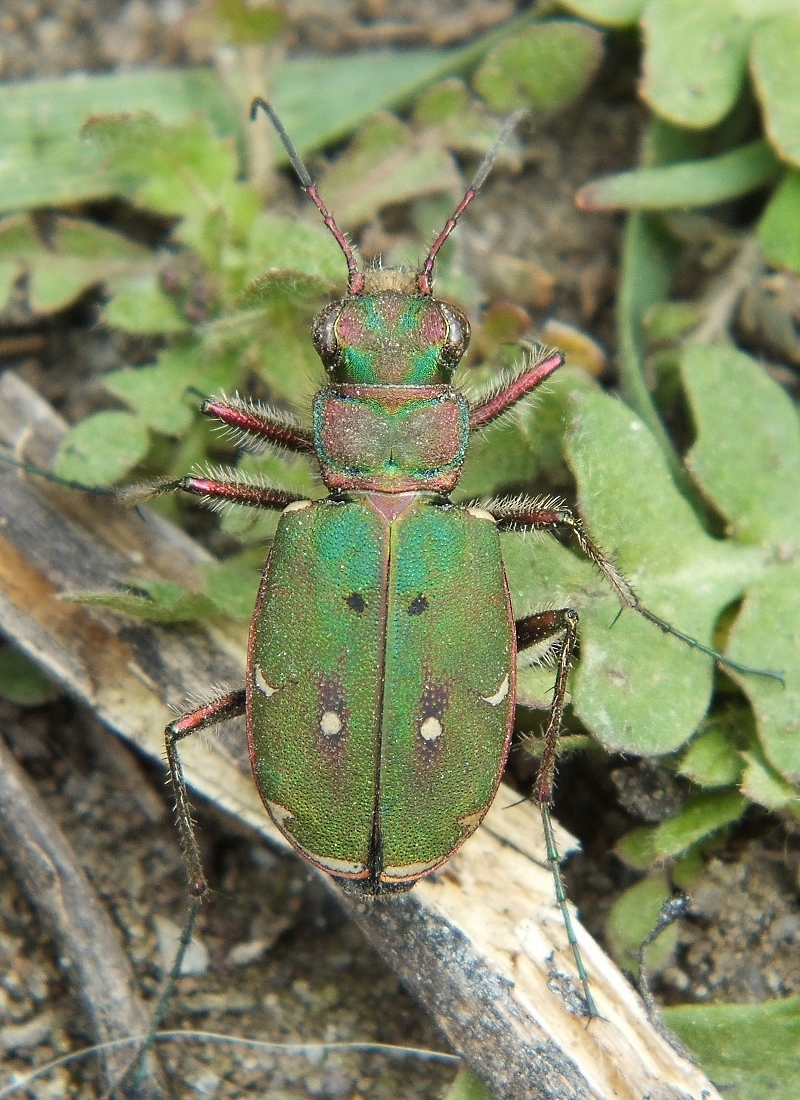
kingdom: Animalia
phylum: Arthropoda
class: Insecta
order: Coleoptera
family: Carabidae
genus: Cicindela
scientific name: Cicindela campestris
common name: Common tiger beetle
